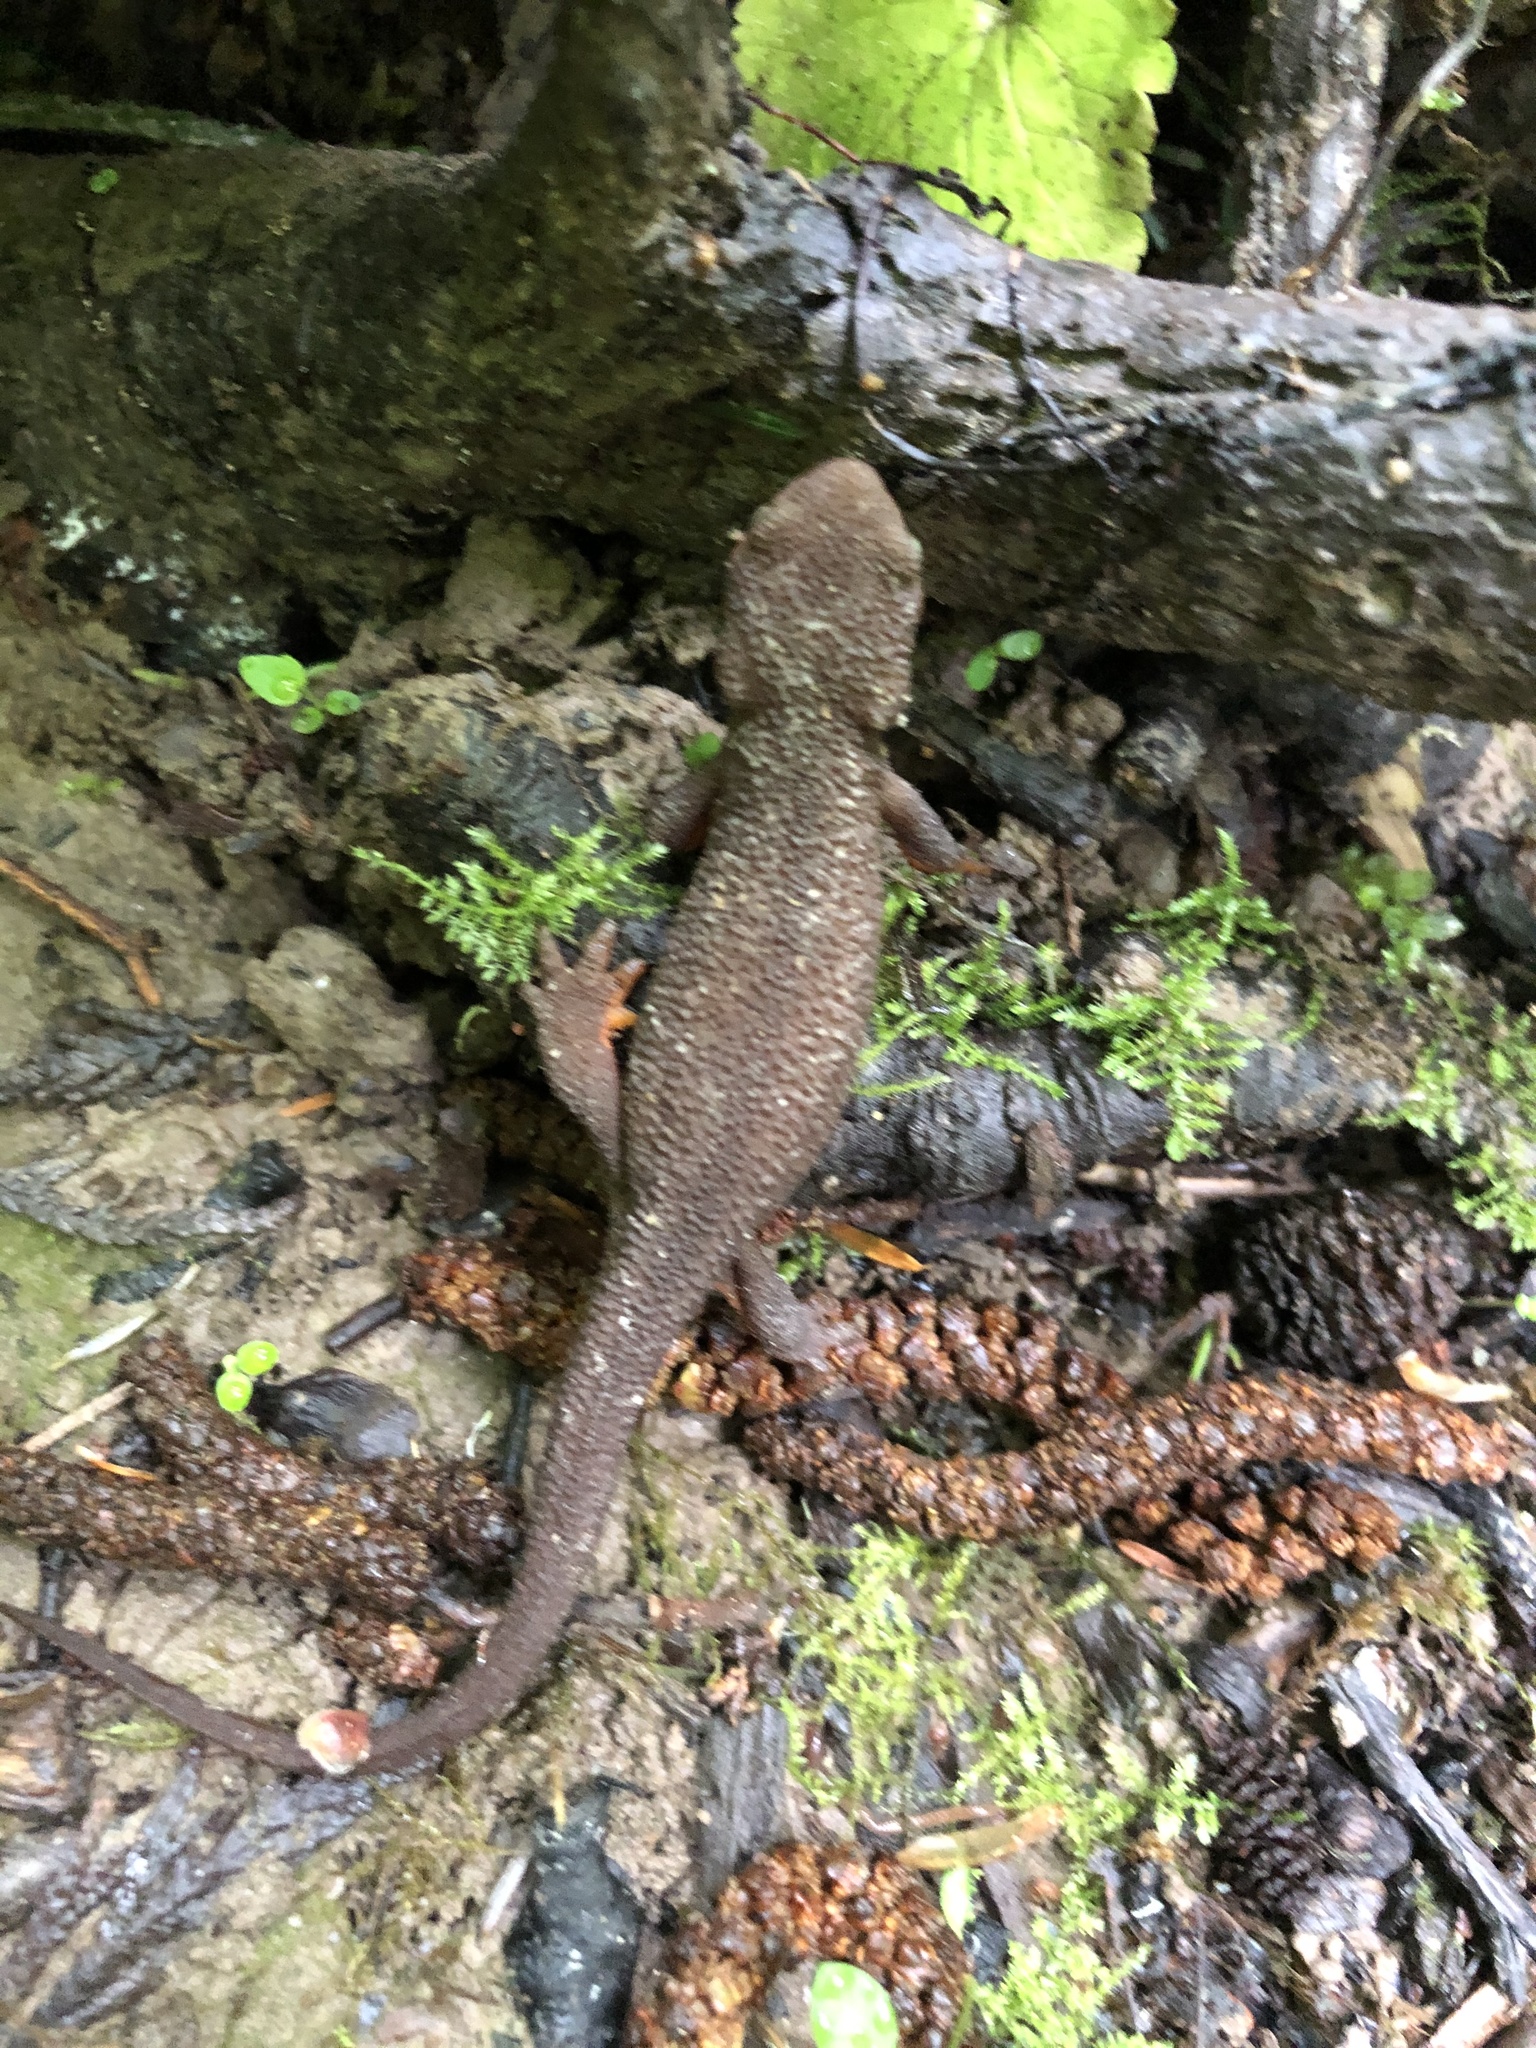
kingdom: Animalia
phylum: Chordata
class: Amphibia
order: Caudata
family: Salamandridae
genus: Taricha
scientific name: Taricha granulosa
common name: Roughskin newt
